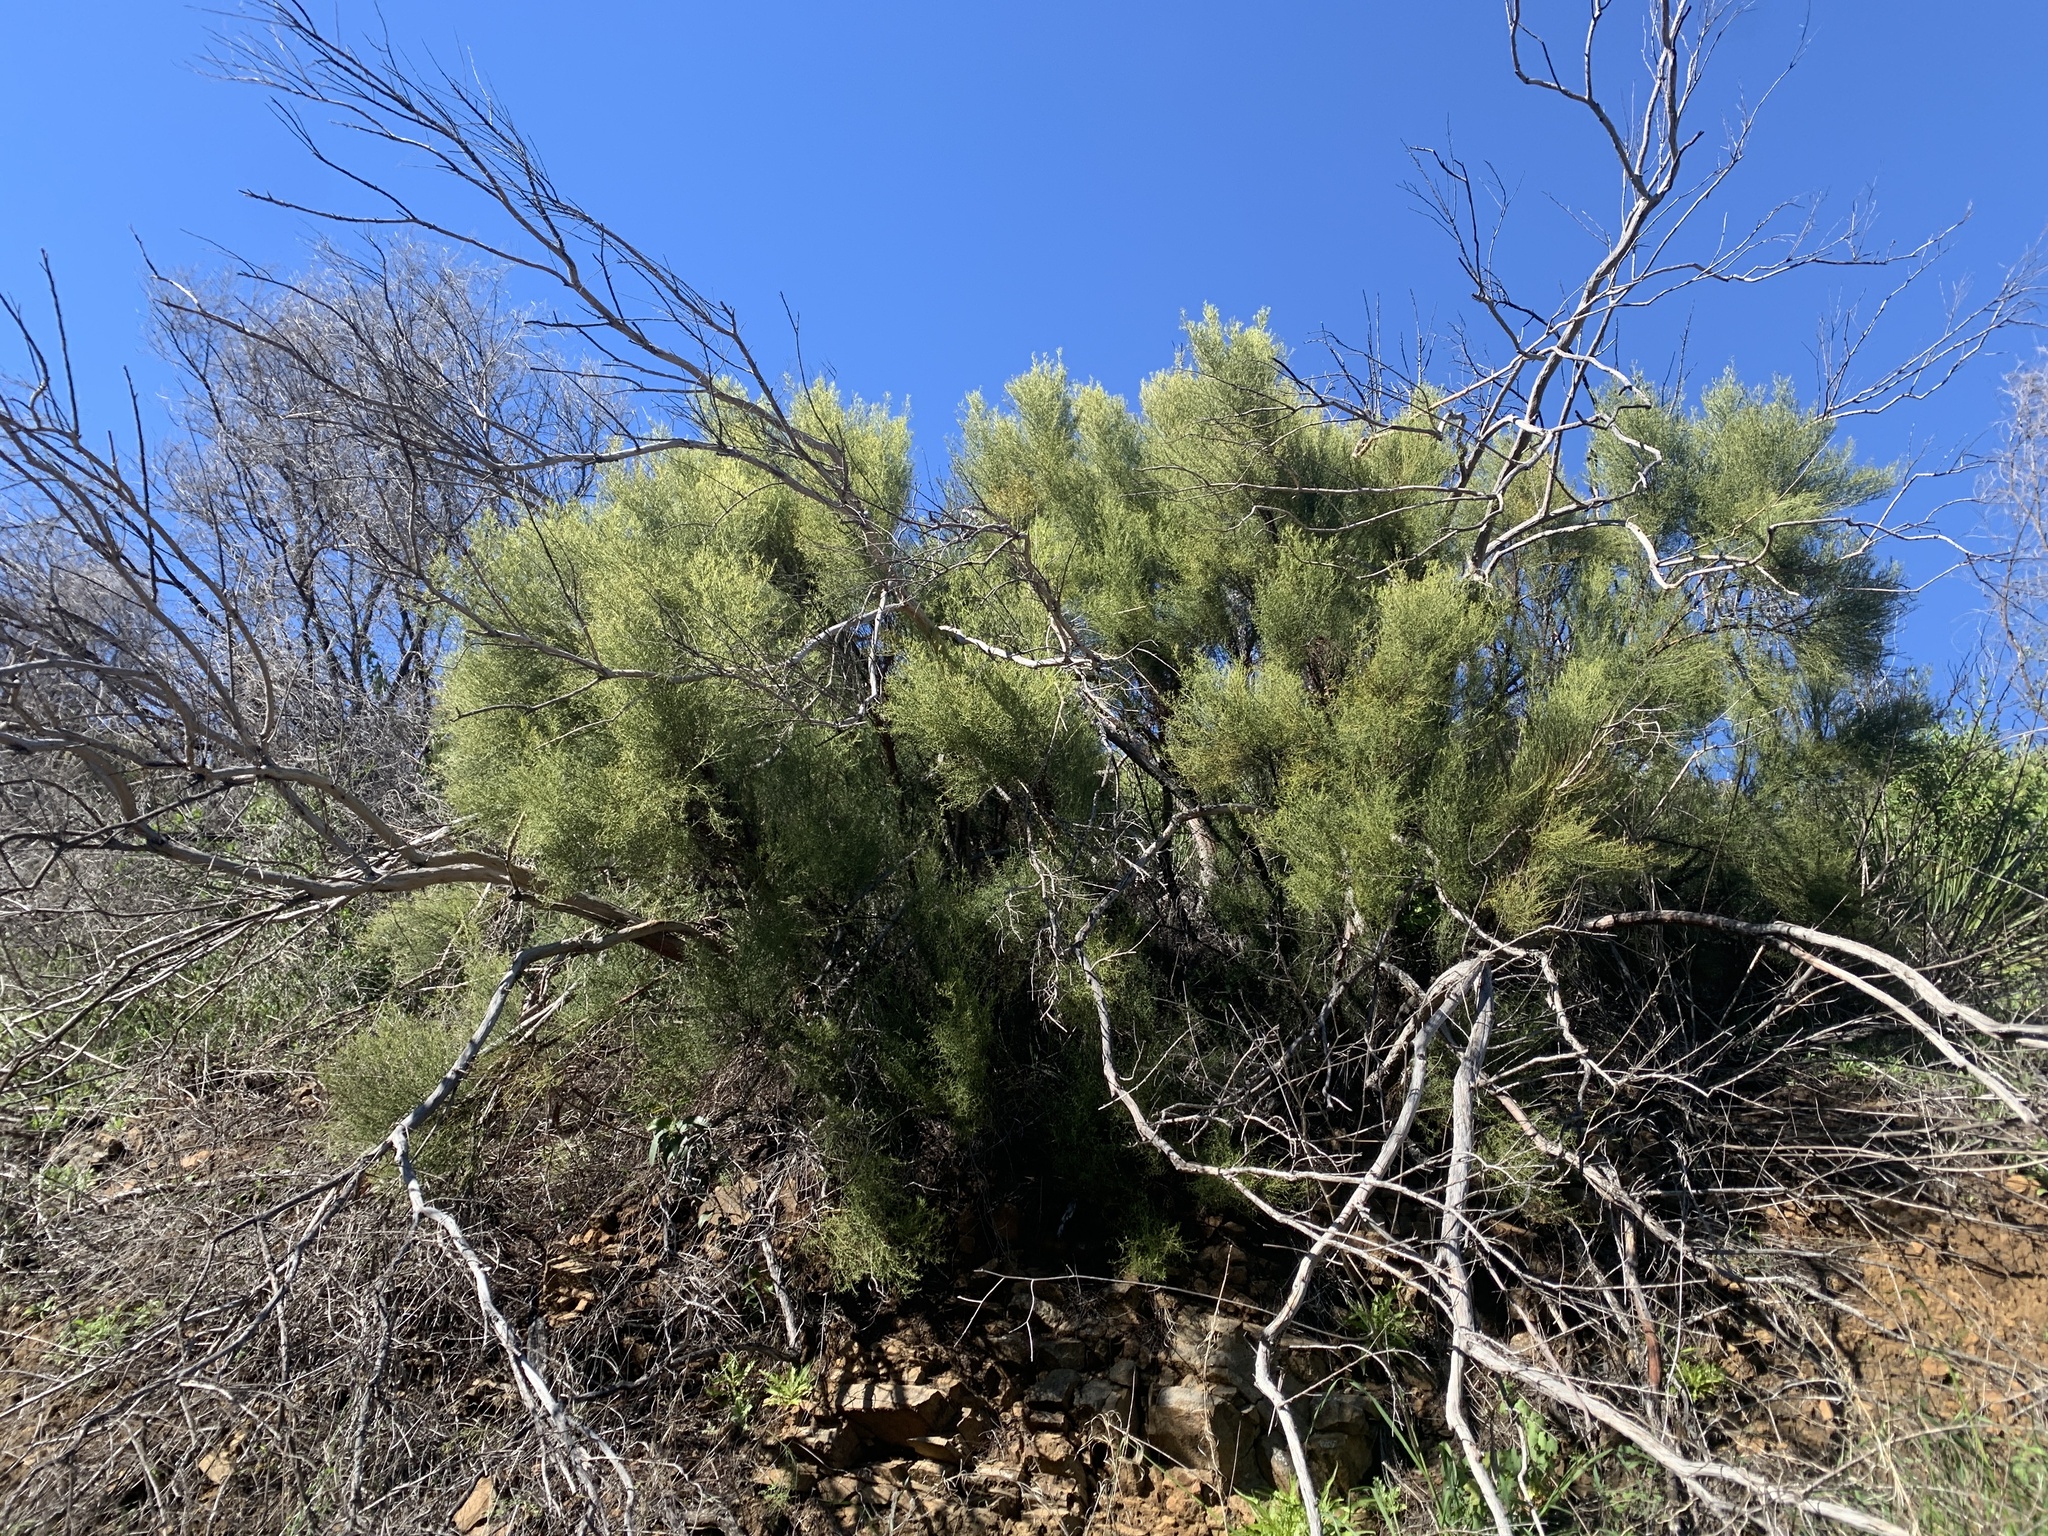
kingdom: Plantae
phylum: Tracheophyta
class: Magnoliopsida
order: Rosales
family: Rosaceae
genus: Adenostoma
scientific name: Adenostoma sparsifolium
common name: Red shank
